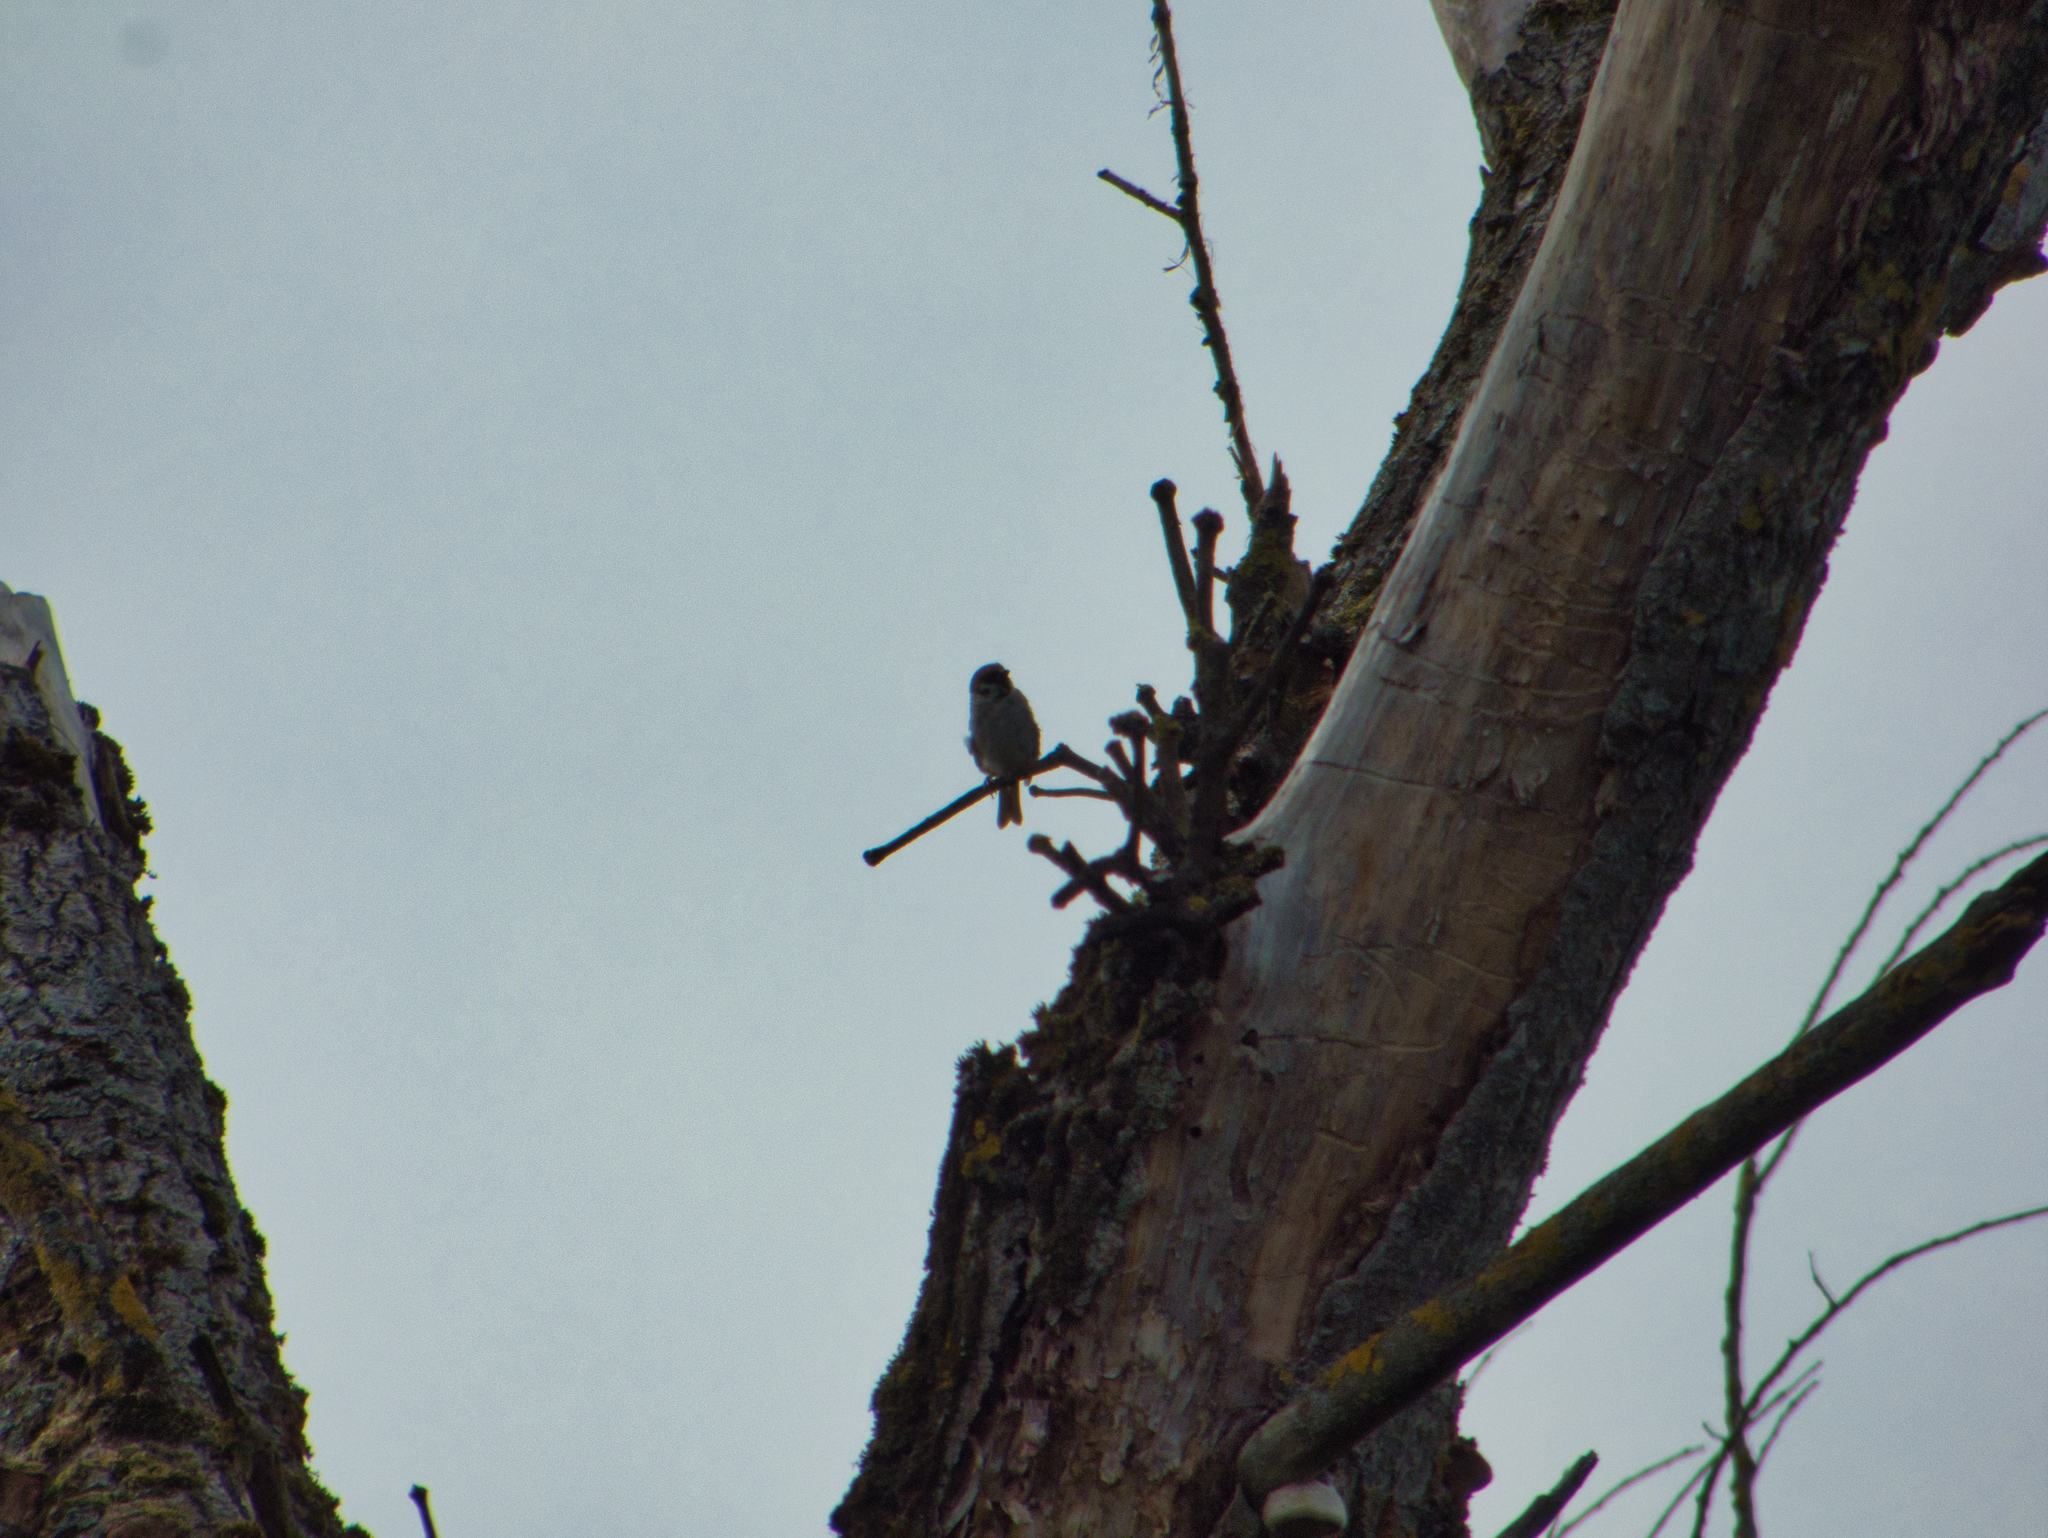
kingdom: Animalia
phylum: Chordata
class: Aves
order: Passeriformes
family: Passeridae
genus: Passer
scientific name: Passer montanus
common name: Eurasian tree sparrow
